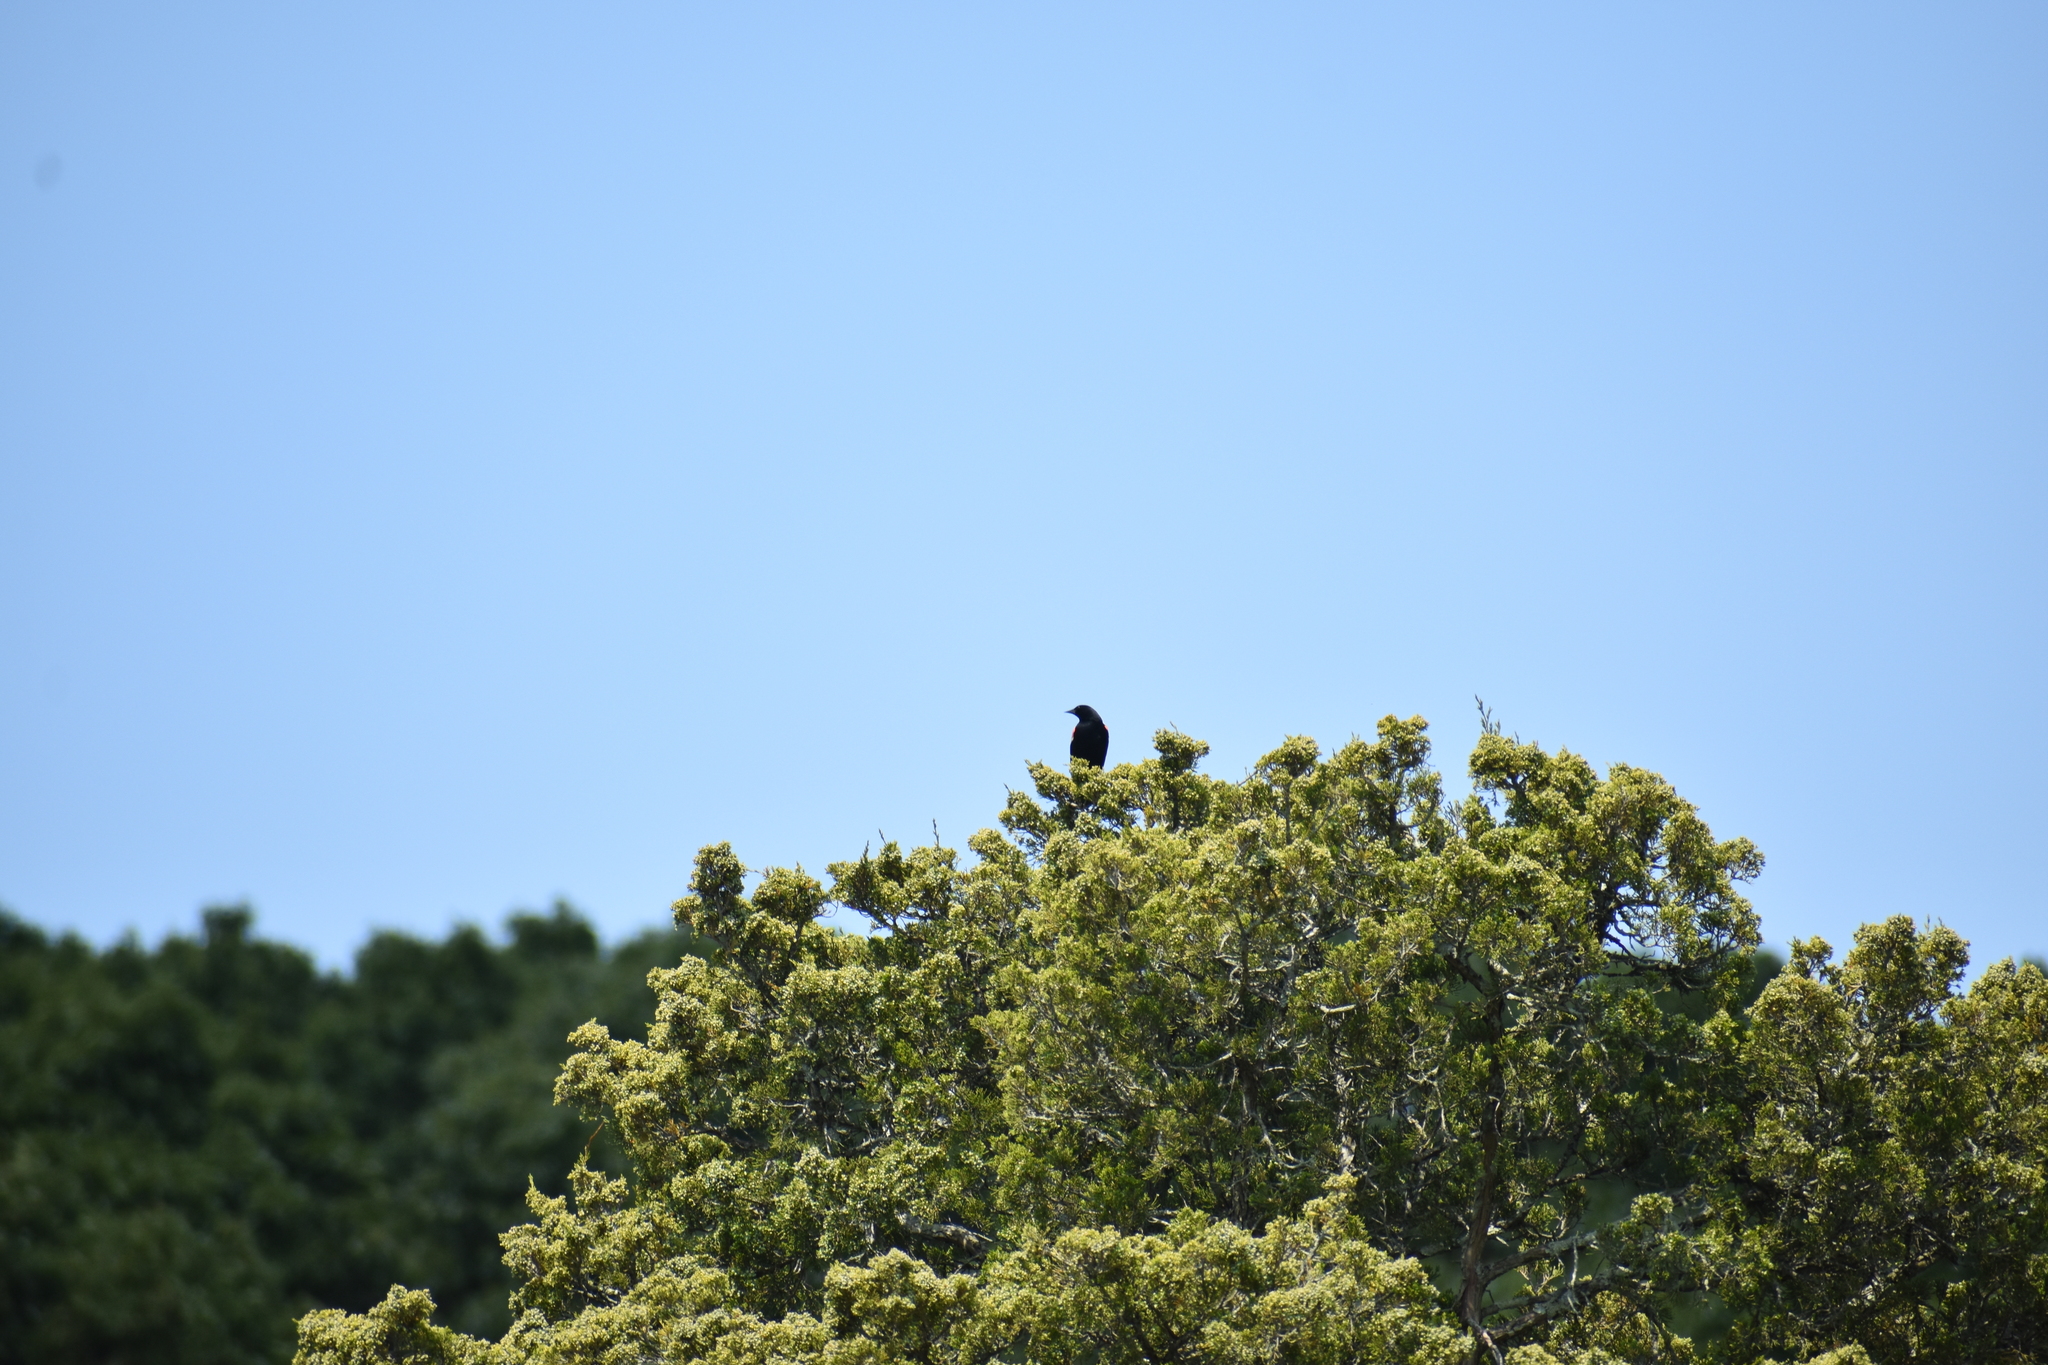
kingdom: Animalia
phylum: Chordata
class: Aves
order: Passeriformes
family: Icteridae
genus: Agelaius
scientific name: Agelaius phoeniceus
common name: Red-winged blackbird
